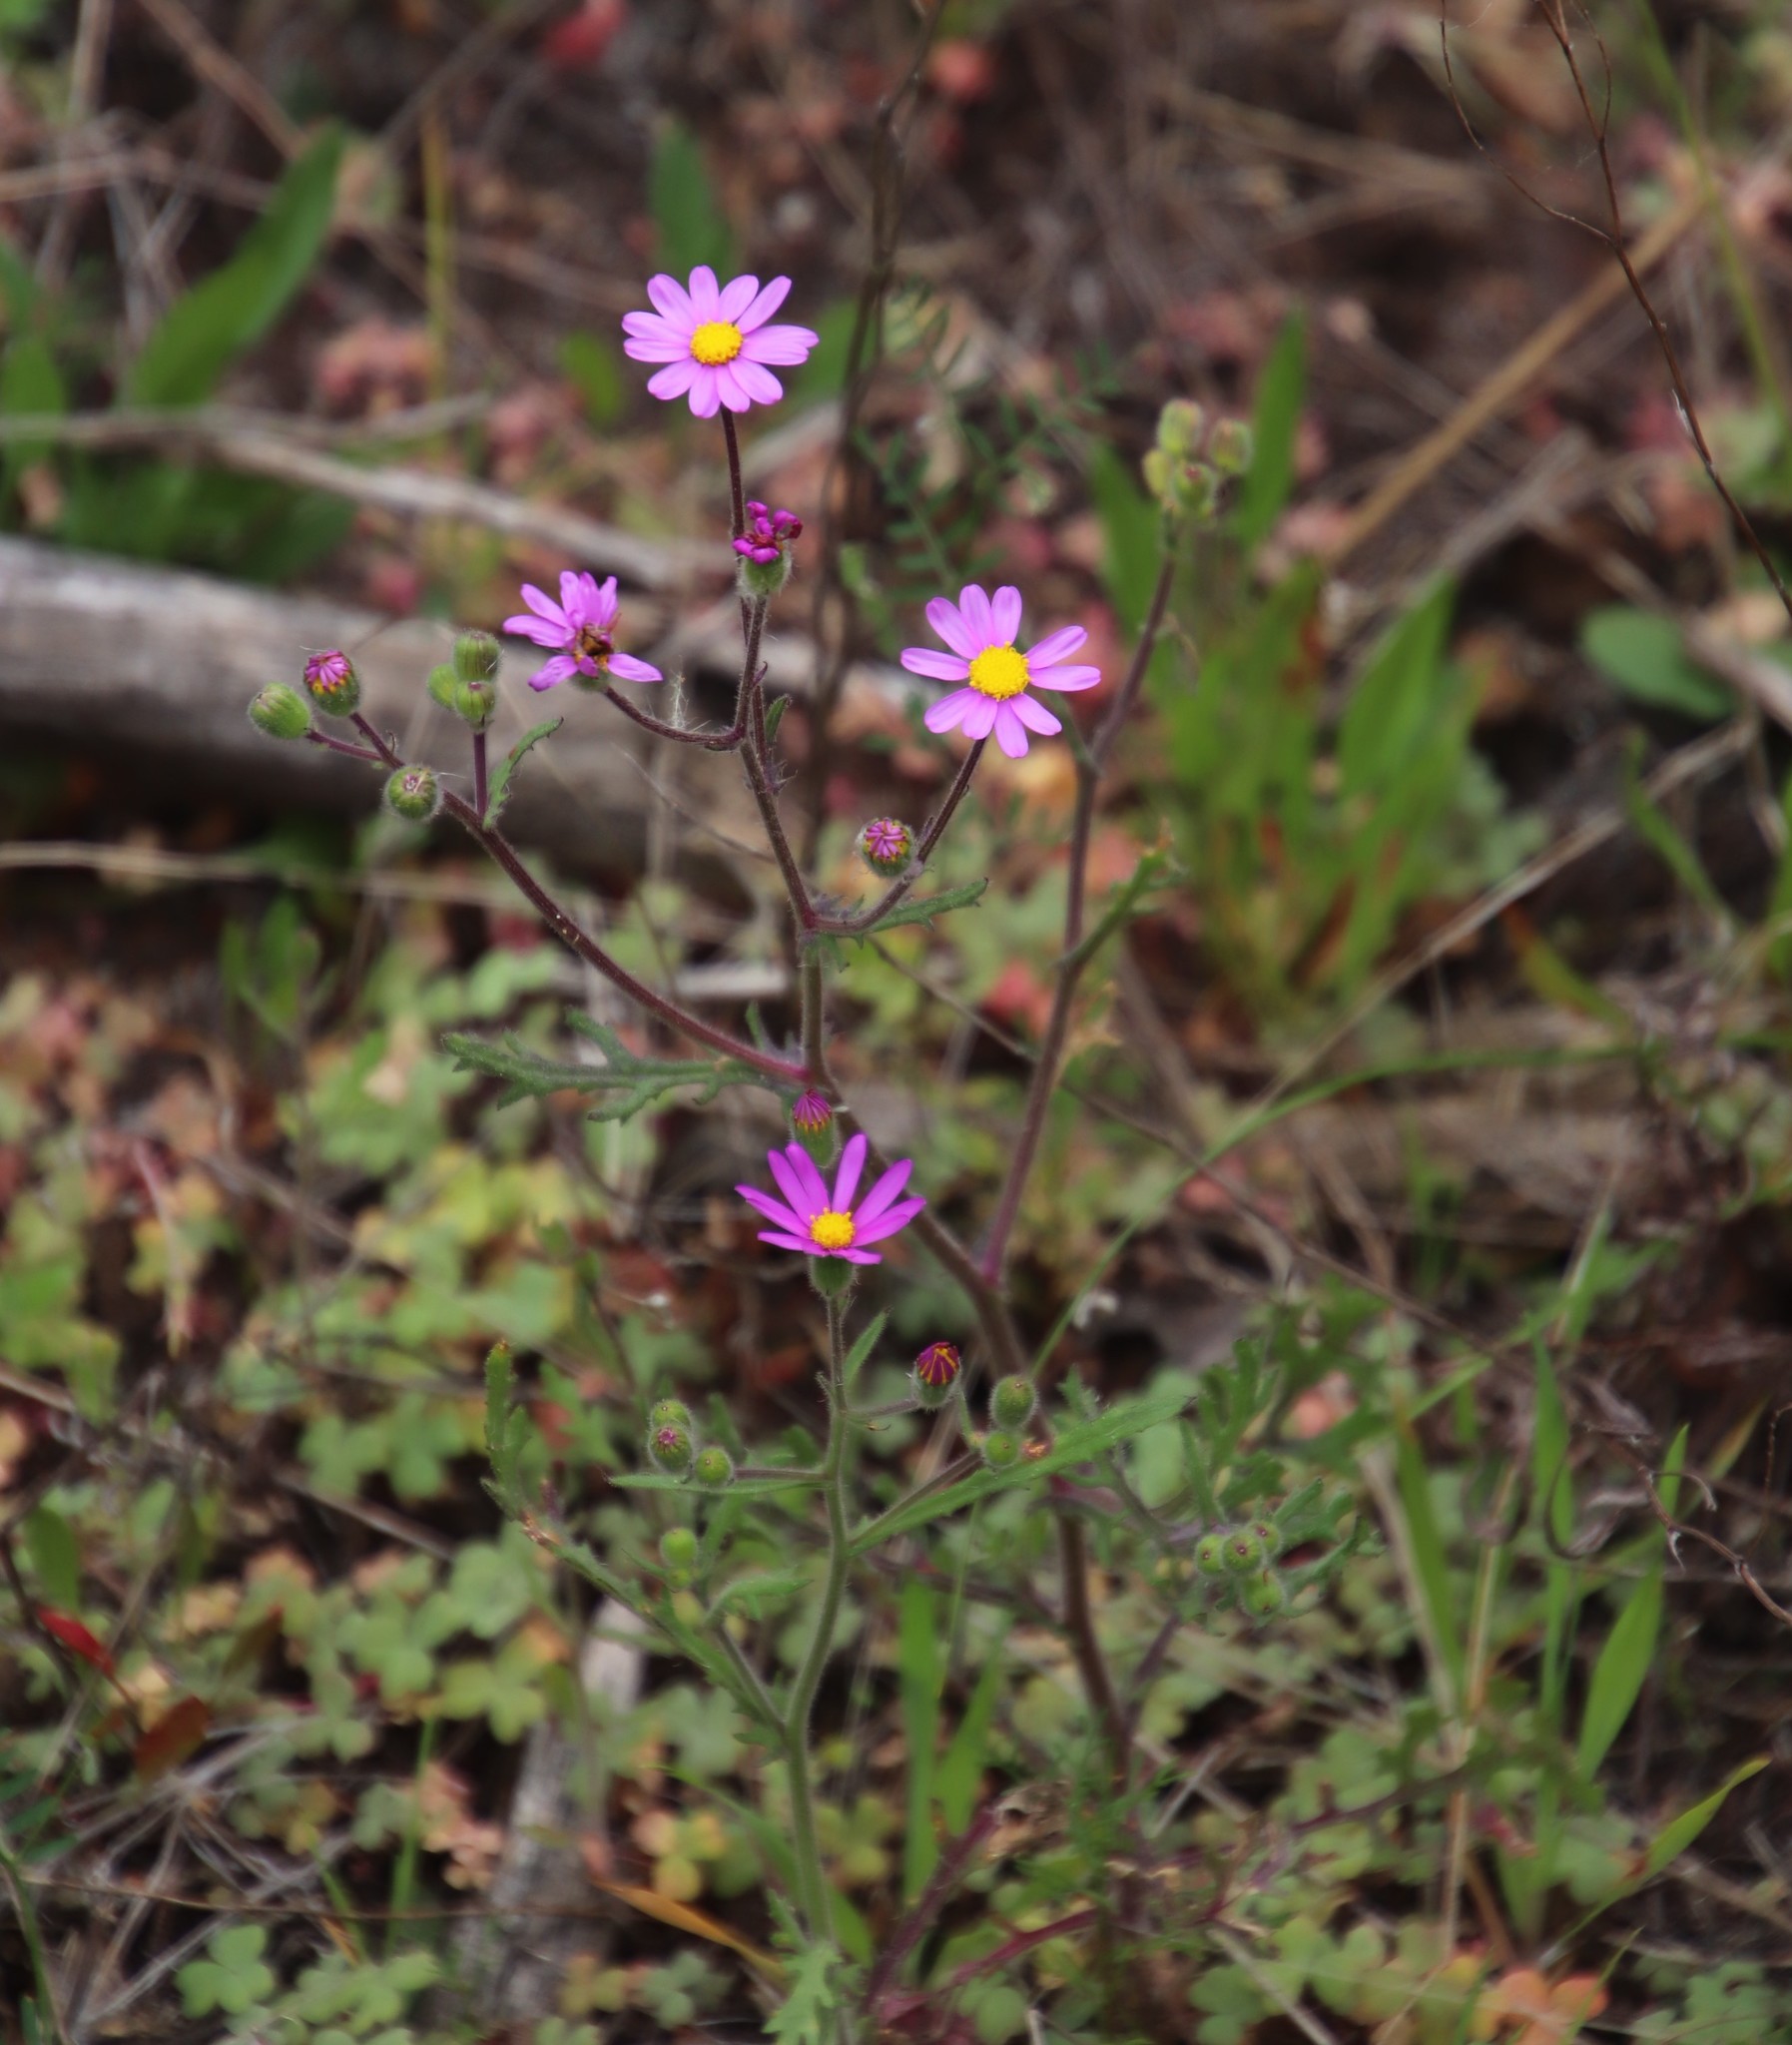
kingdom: Plantae
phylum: Tracheophyta
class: Magnoliopsida
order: Asterales
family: Asteraceae
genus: Senecio
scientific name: Senecio arenarius
